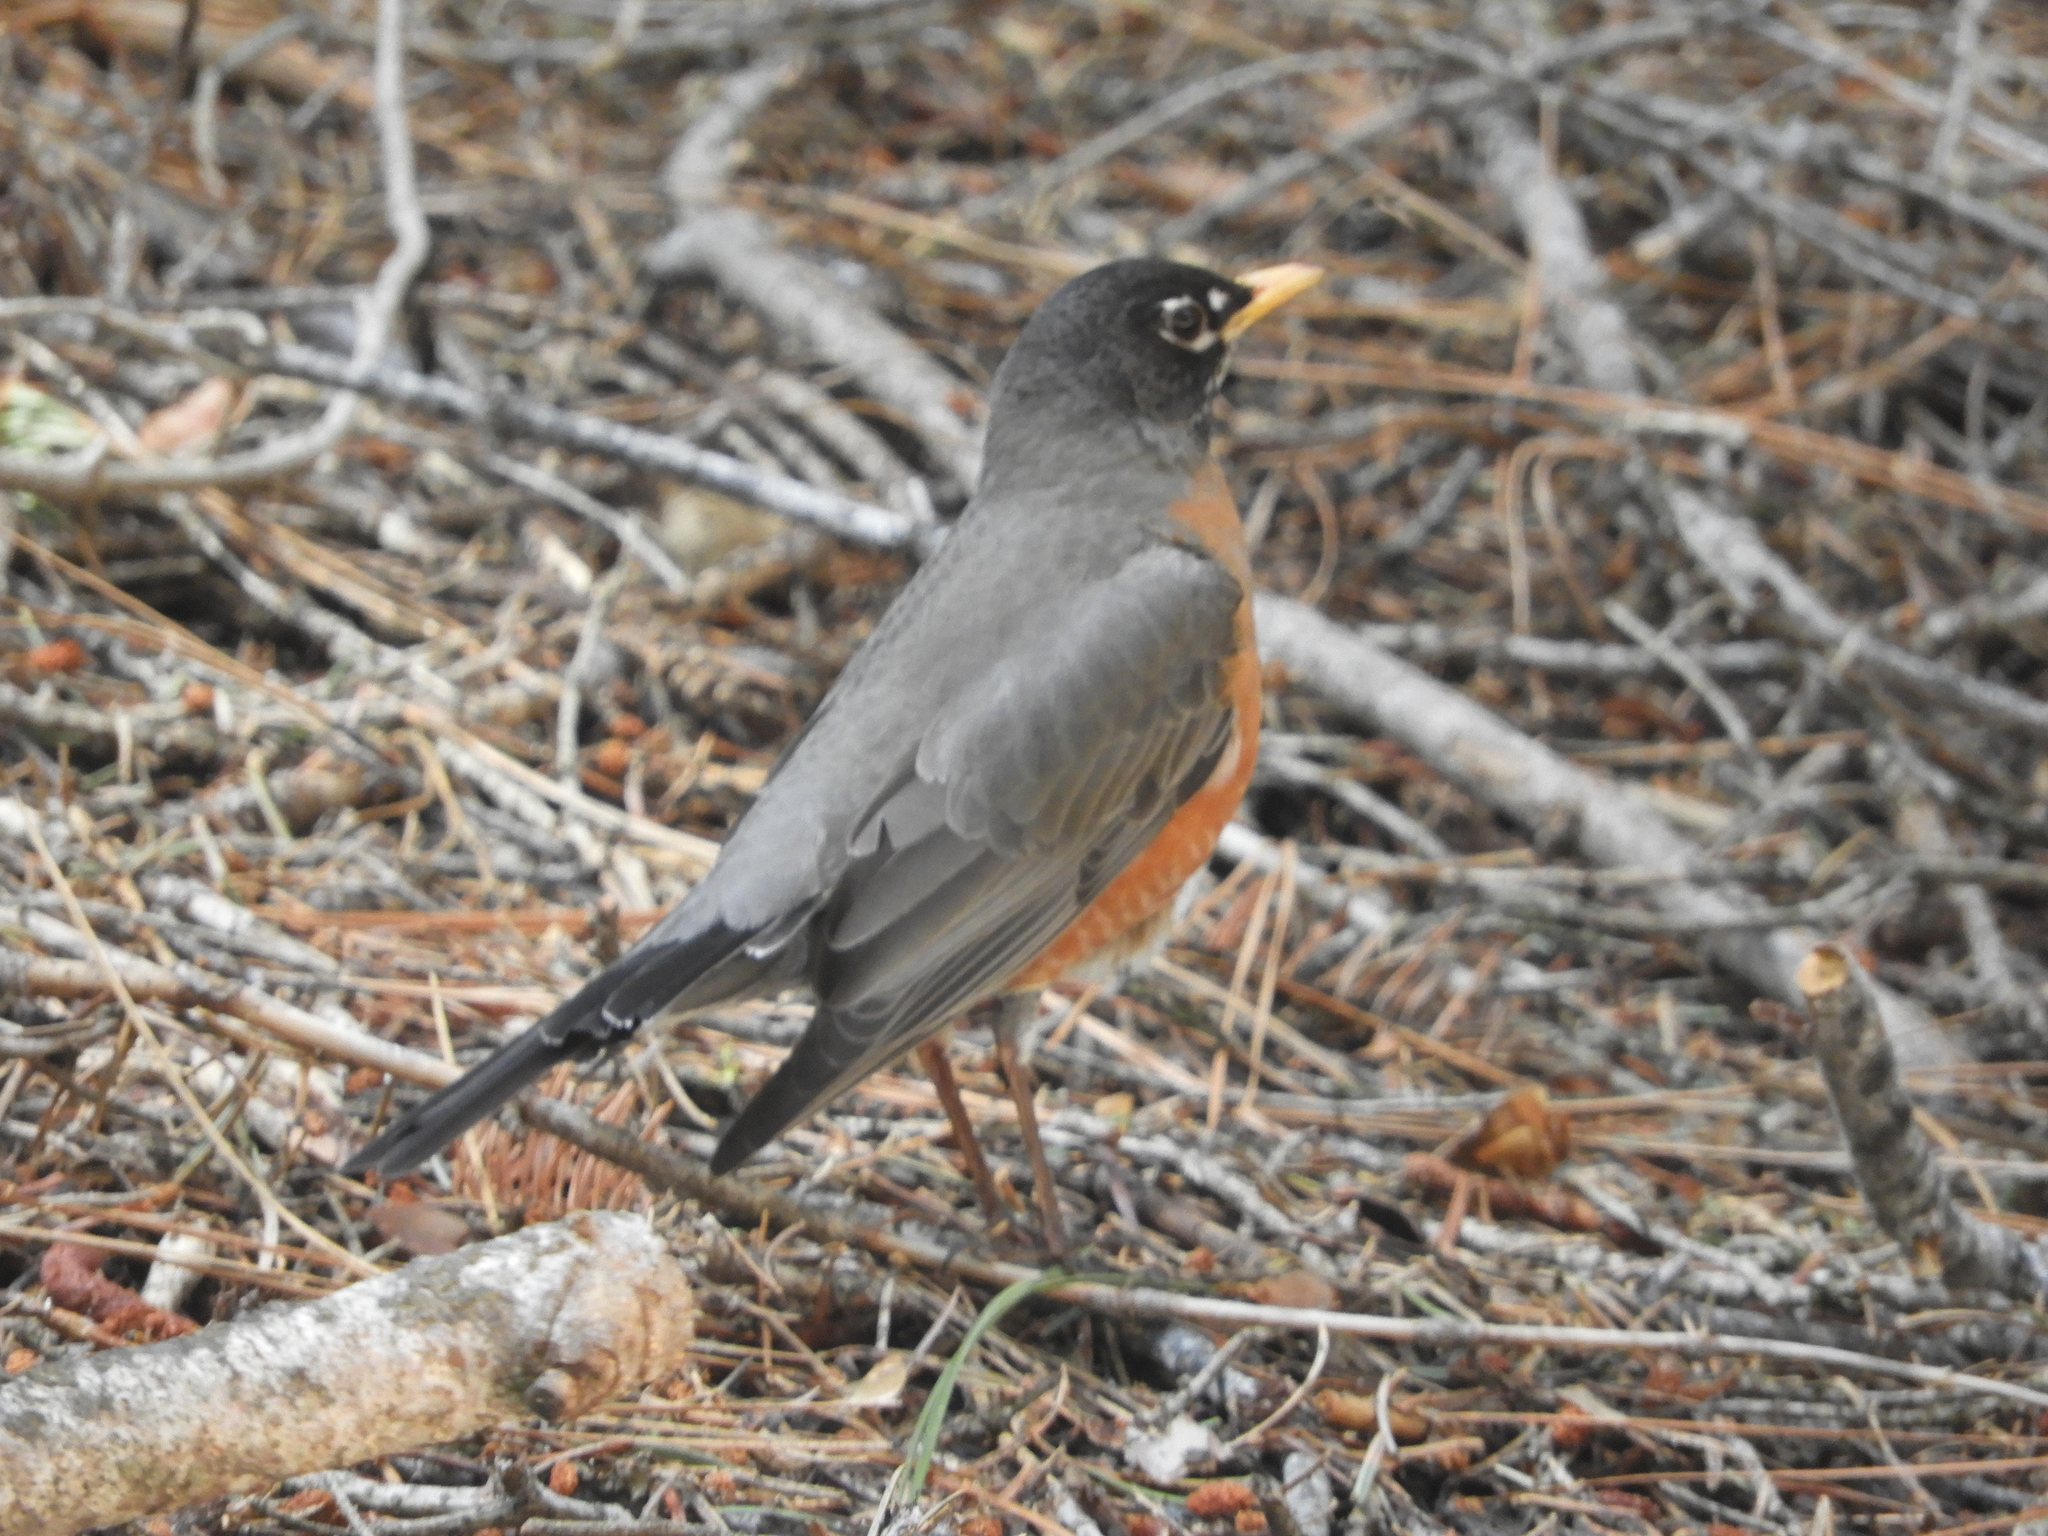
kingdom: Animalia
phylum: Chordata
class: Aves
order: Passeriformes
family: Turdidae
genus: Turdus
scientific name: Turdus migratorius
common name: American robin
